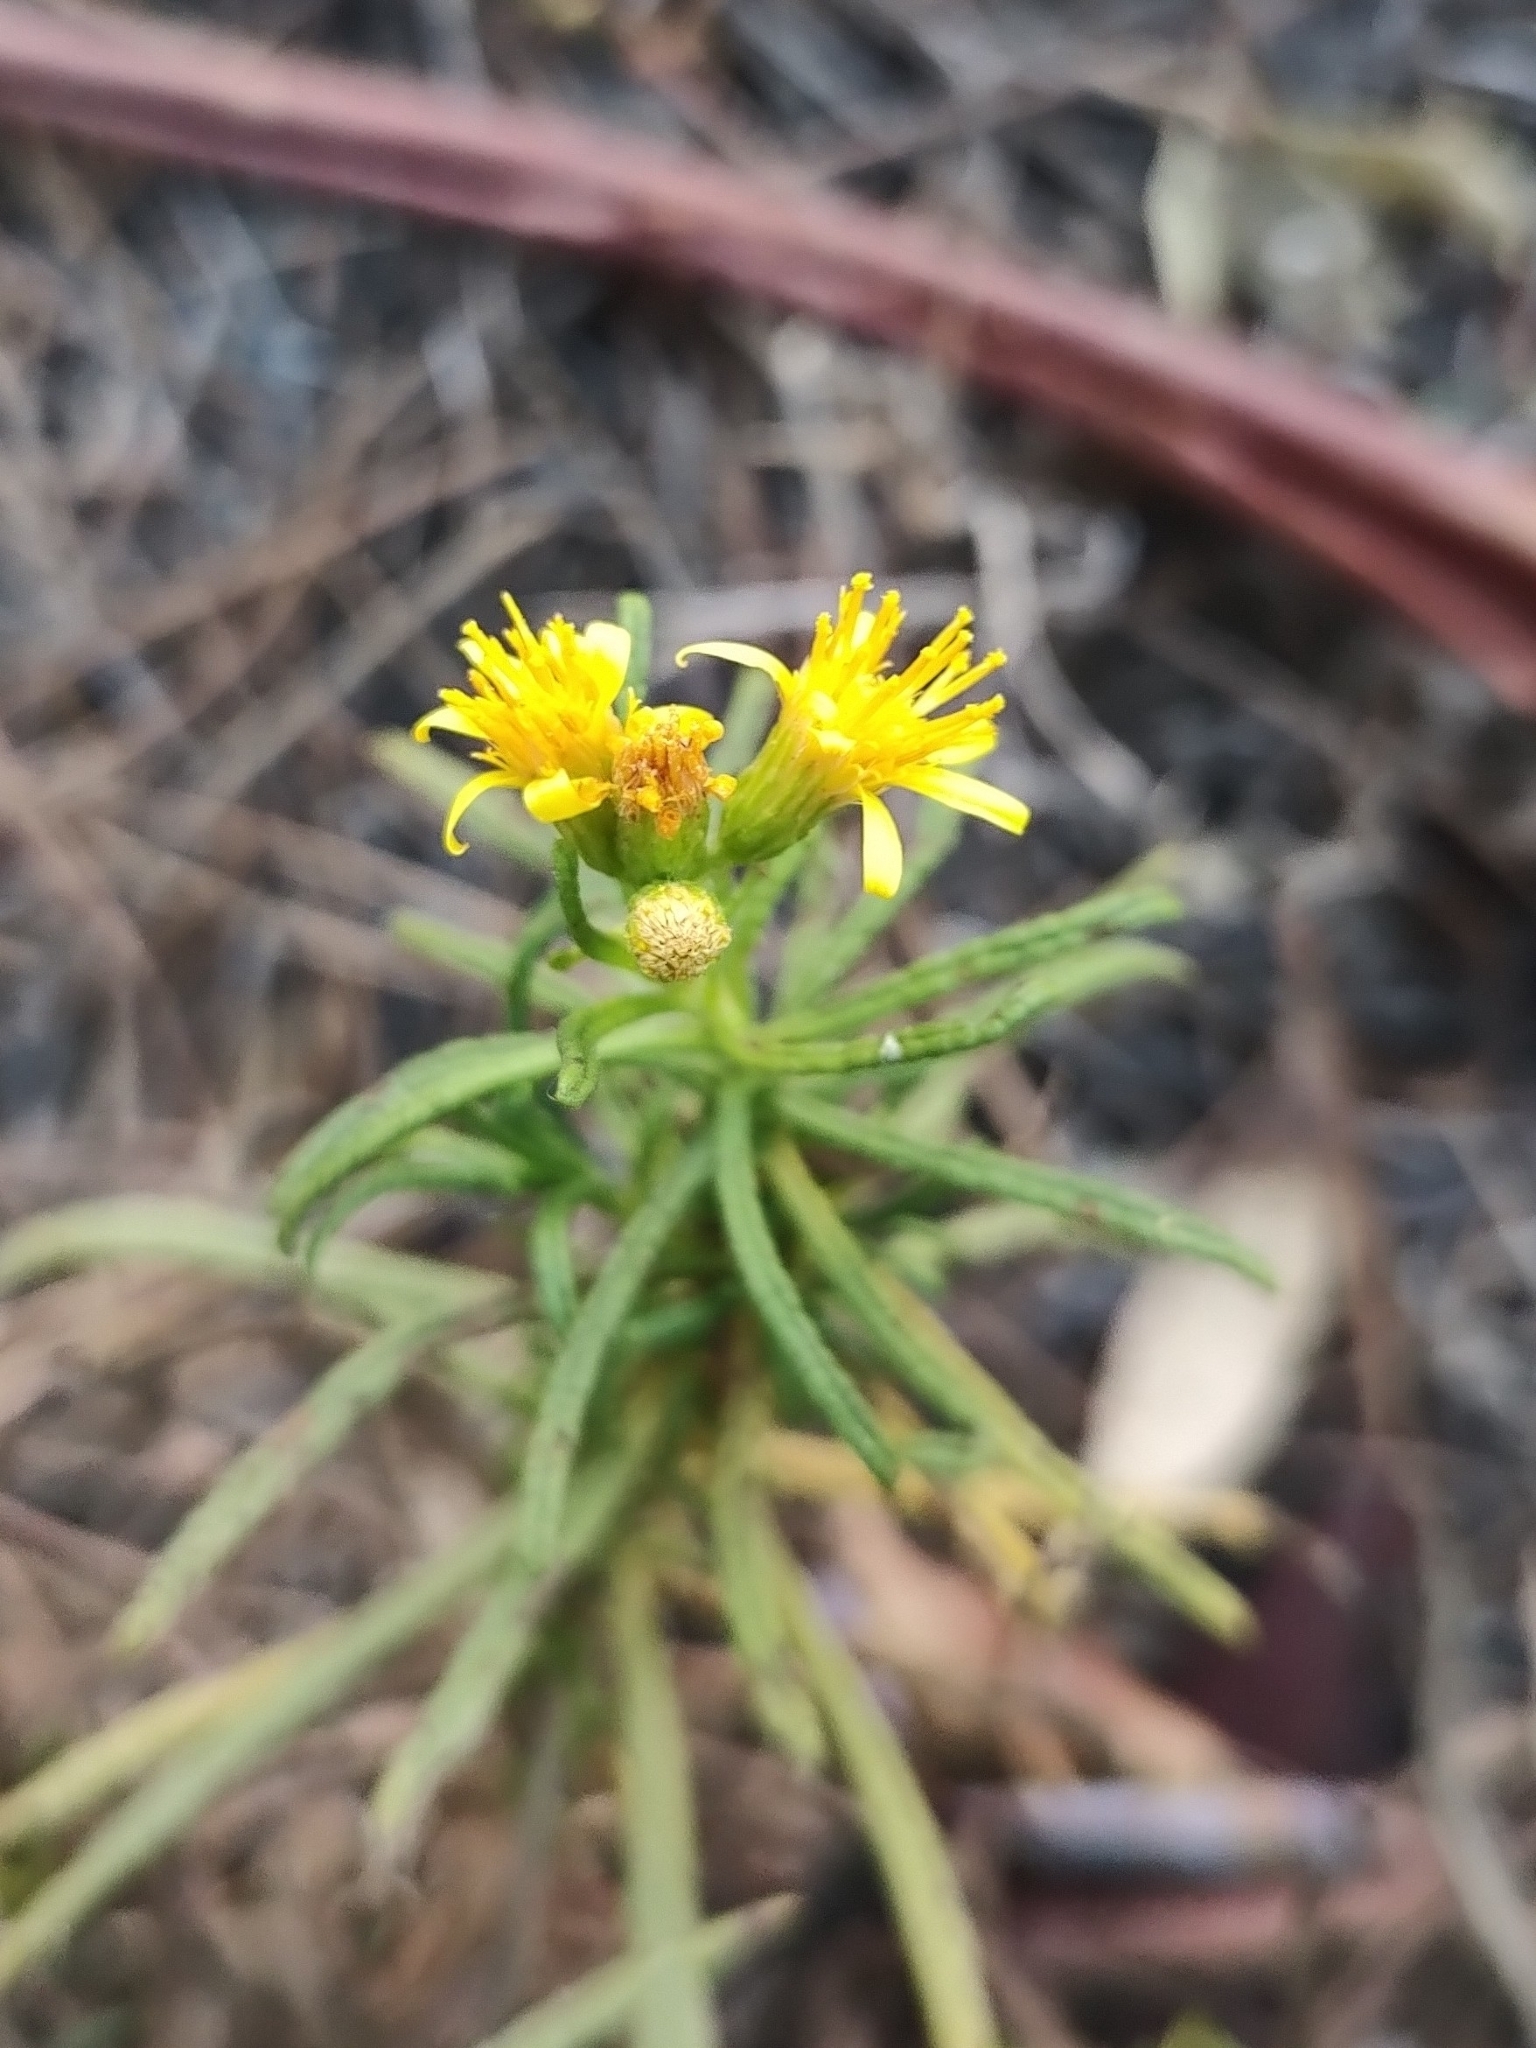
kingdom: Plantae
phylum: Tracheophyta
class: Magnoliopsida
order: Asterales
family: Asteraceae
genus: Dittrichia
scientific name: Dittrichia viscosa
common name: Woody fleabane
